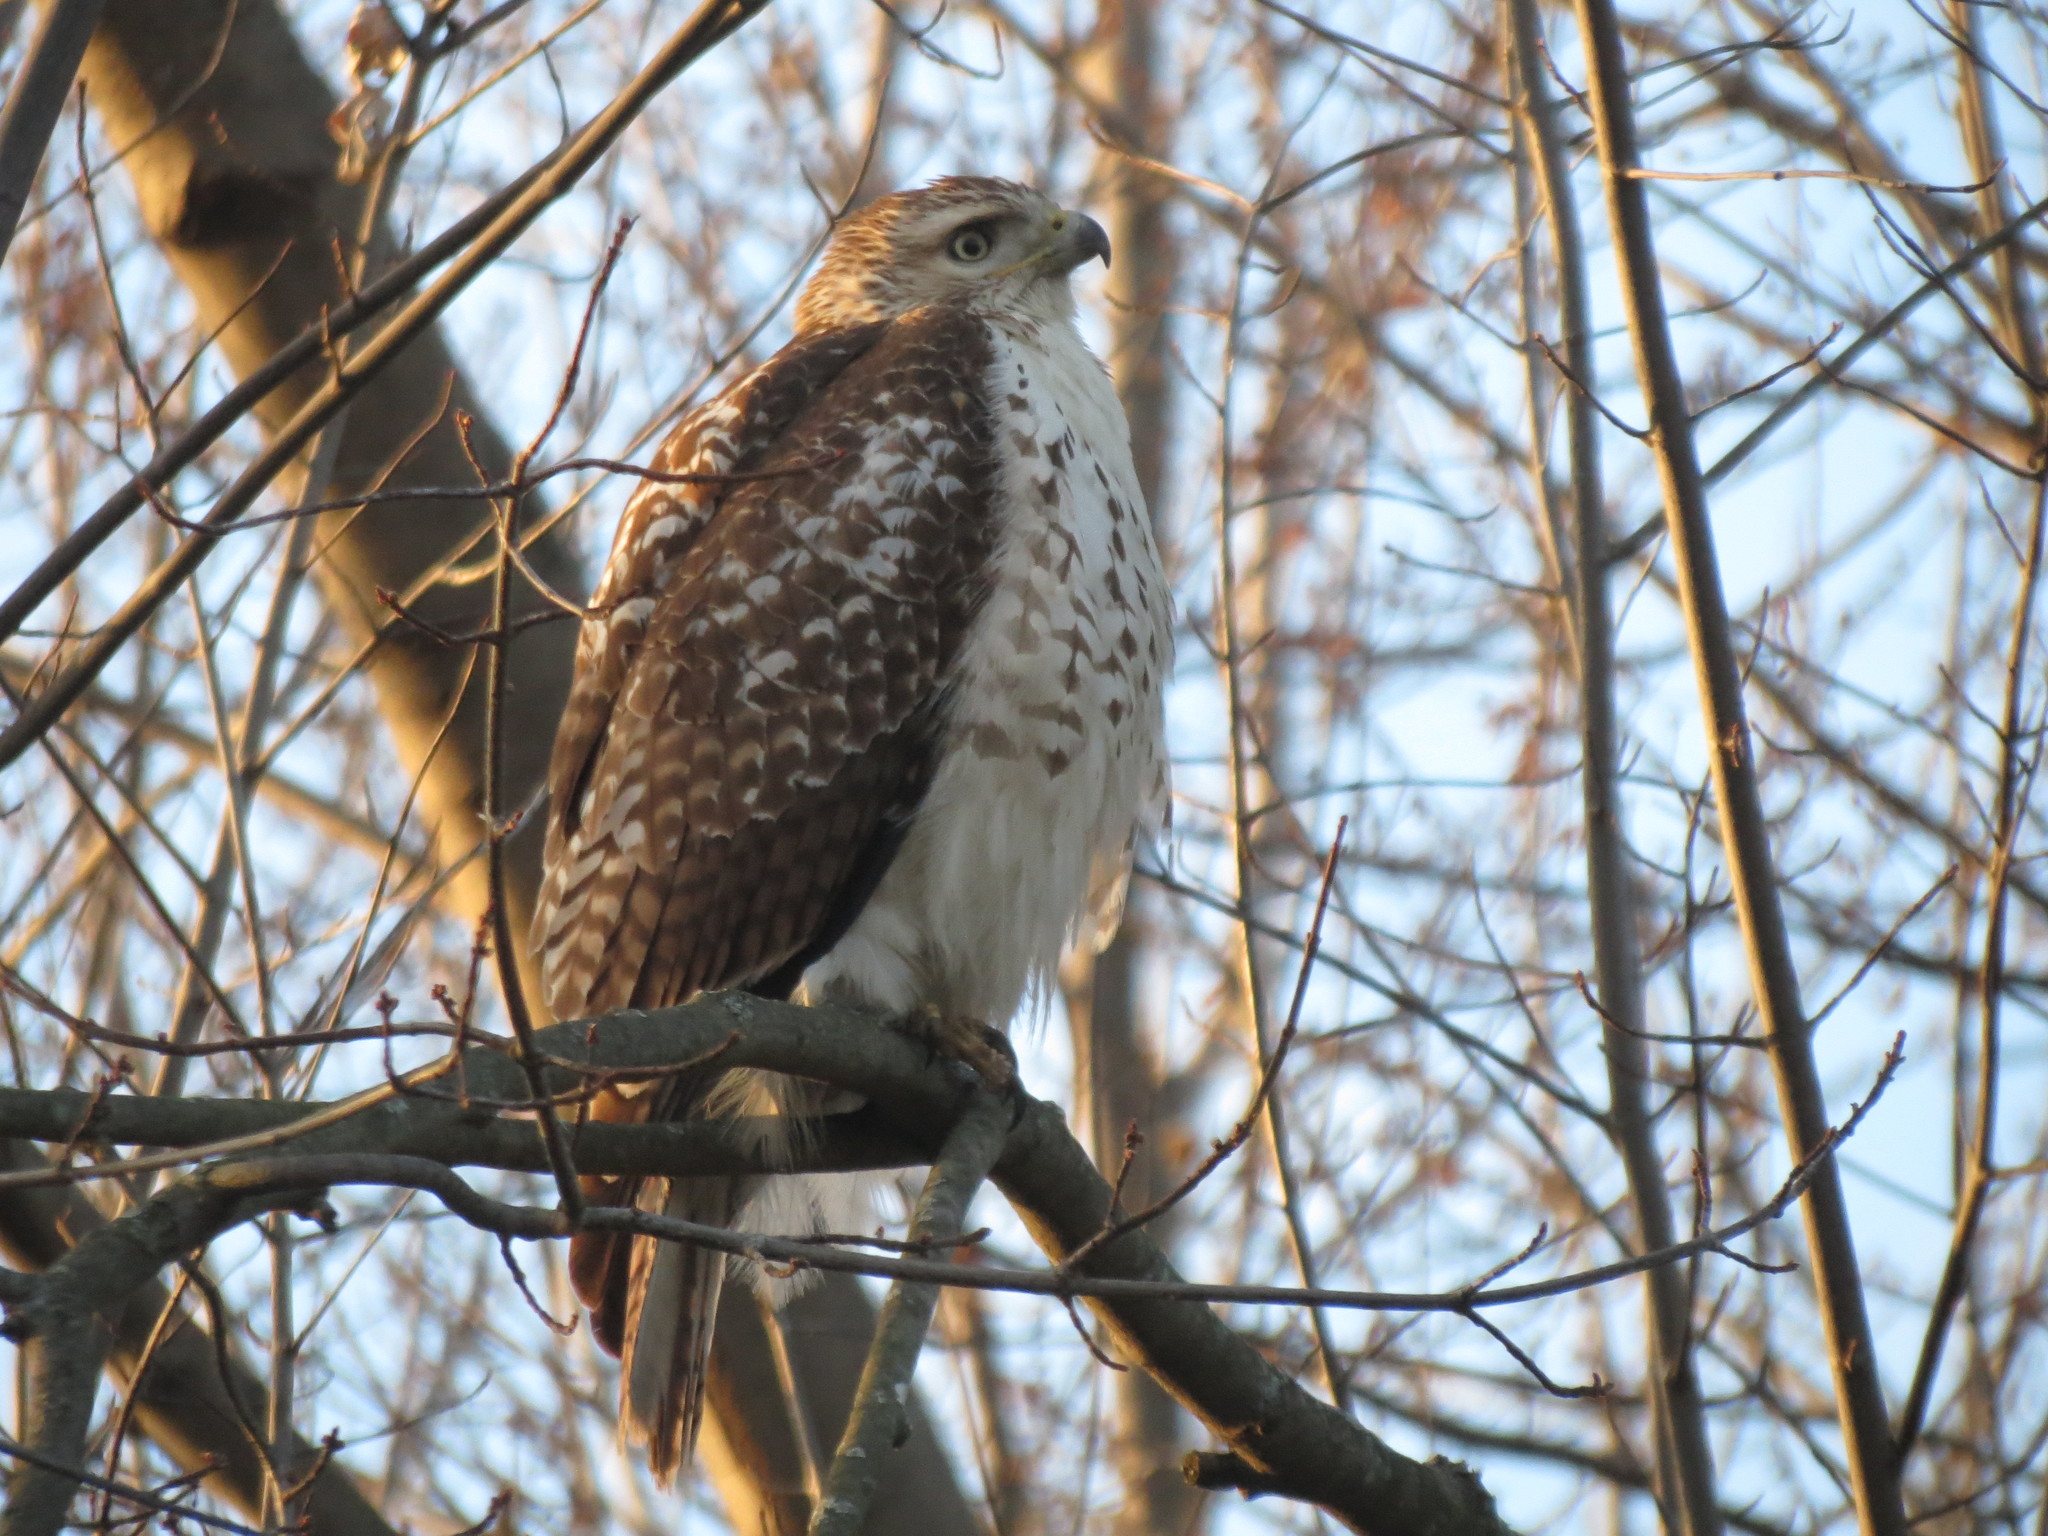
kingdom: Animalia
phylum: Chordata
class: Aves
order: Accipitriformes
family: Accipitridae
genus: Buteo
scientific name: Buteo jamaicensis
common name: Red-tailed hawk
